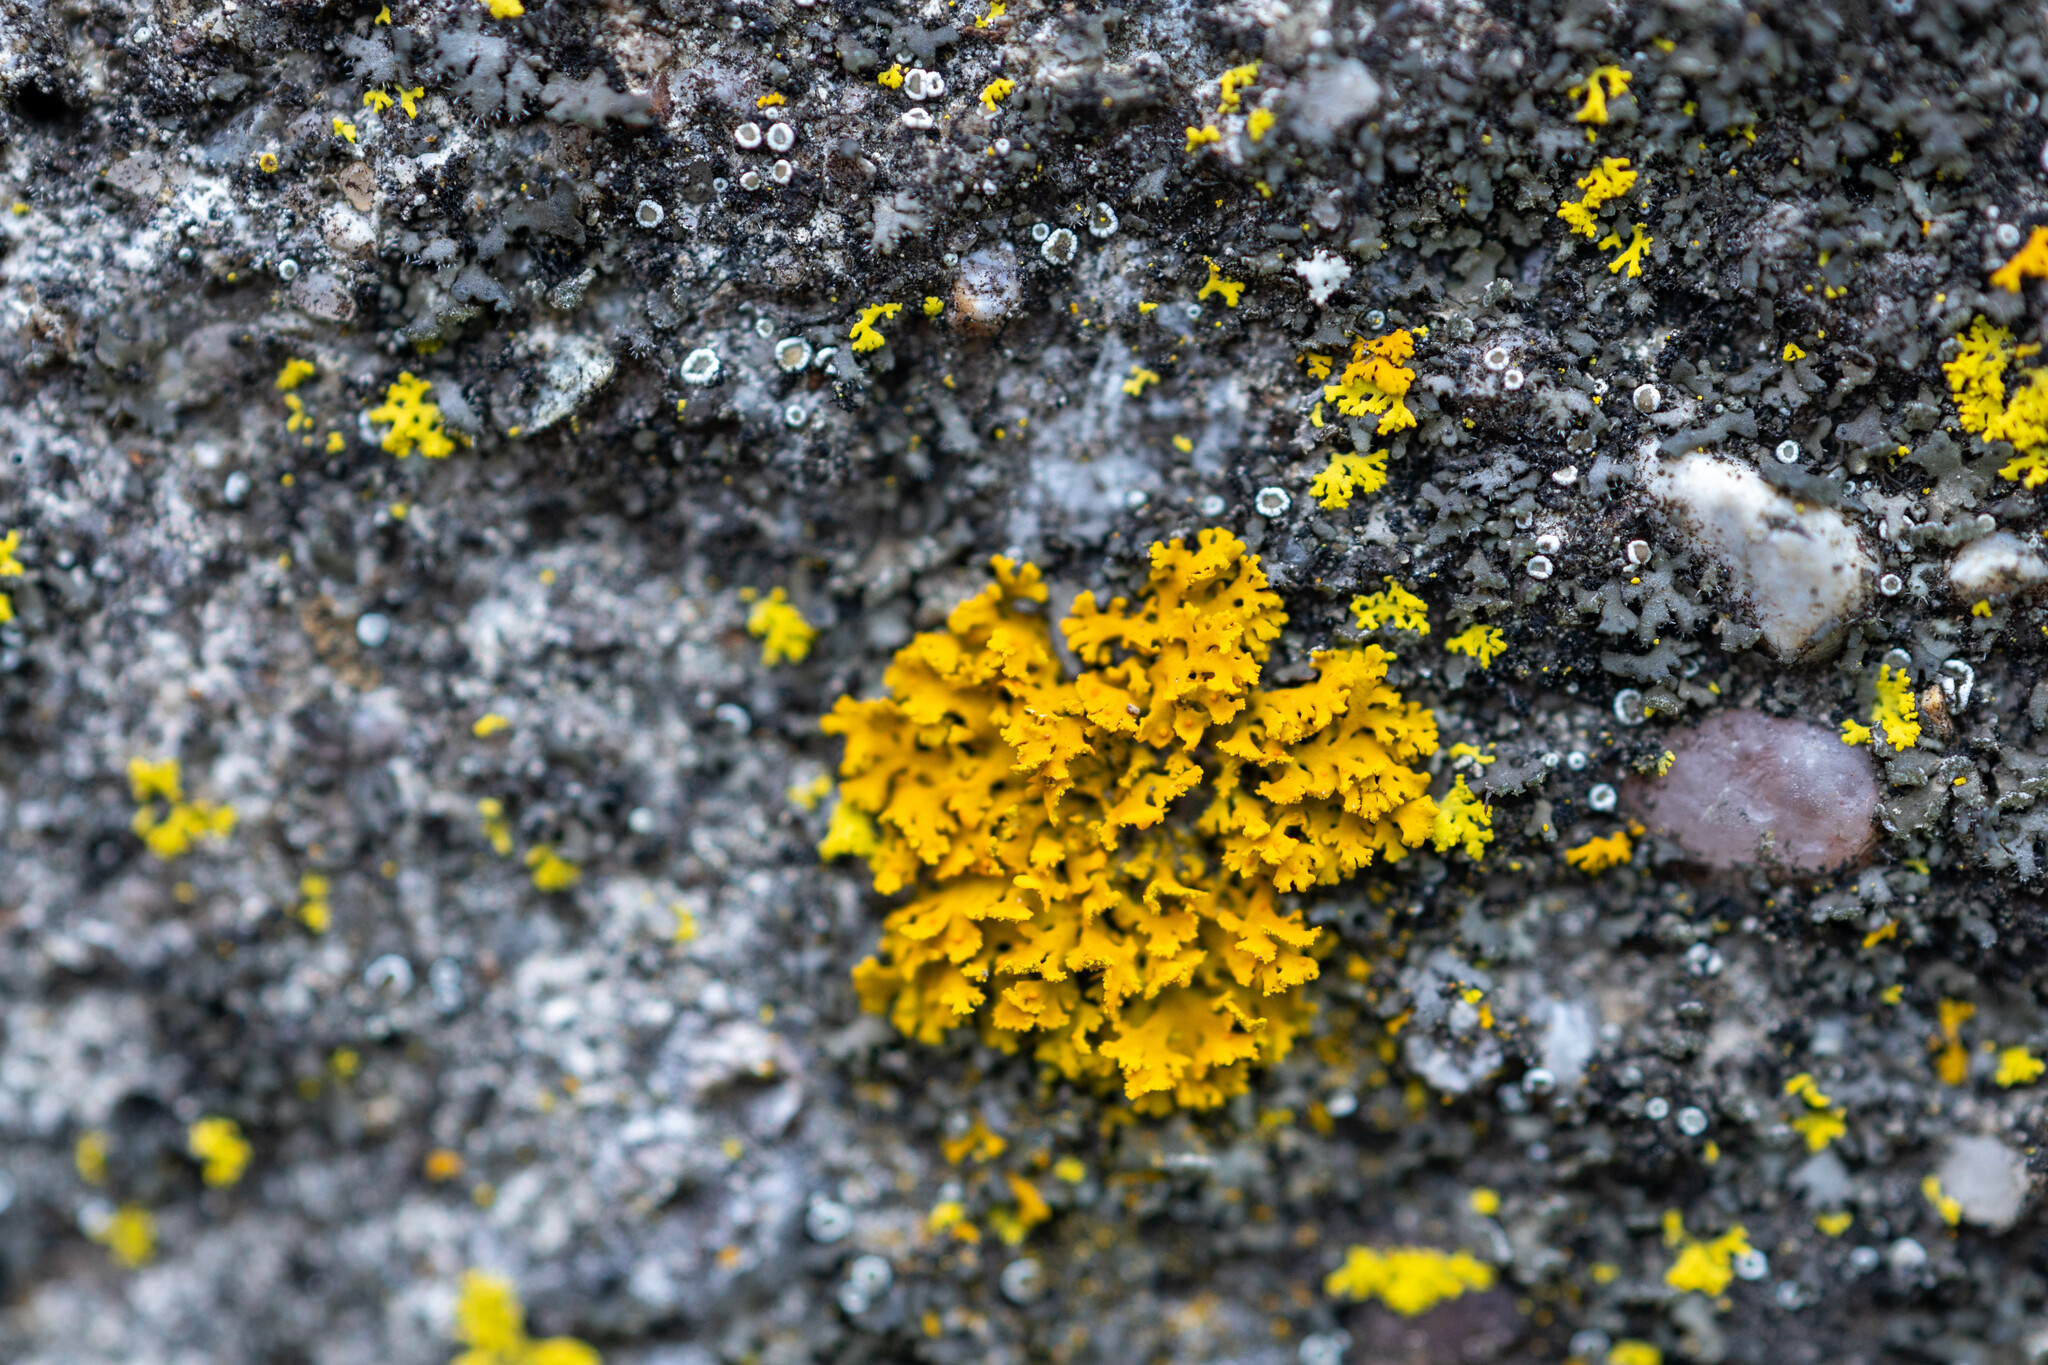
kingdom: Fungi
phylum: Ascomycota
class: Lecanoromycetes
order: Teloschistales
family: Teloschistaceae
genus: Gallowayella
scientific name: Gallowayella weberi
